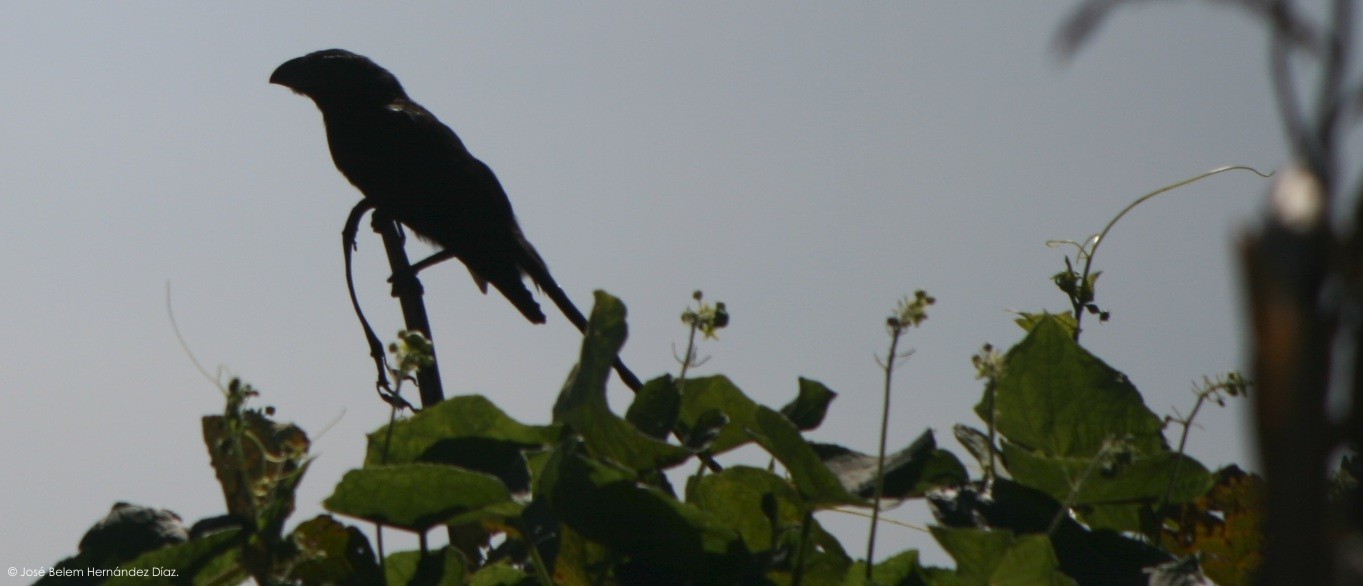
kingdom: Animalia
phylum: Chordata
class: Aves
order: Cuculiformes
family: Cuculidae
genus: Crotophaga
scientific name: Crotophaga sulcirostris
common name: Groove-billed ani
